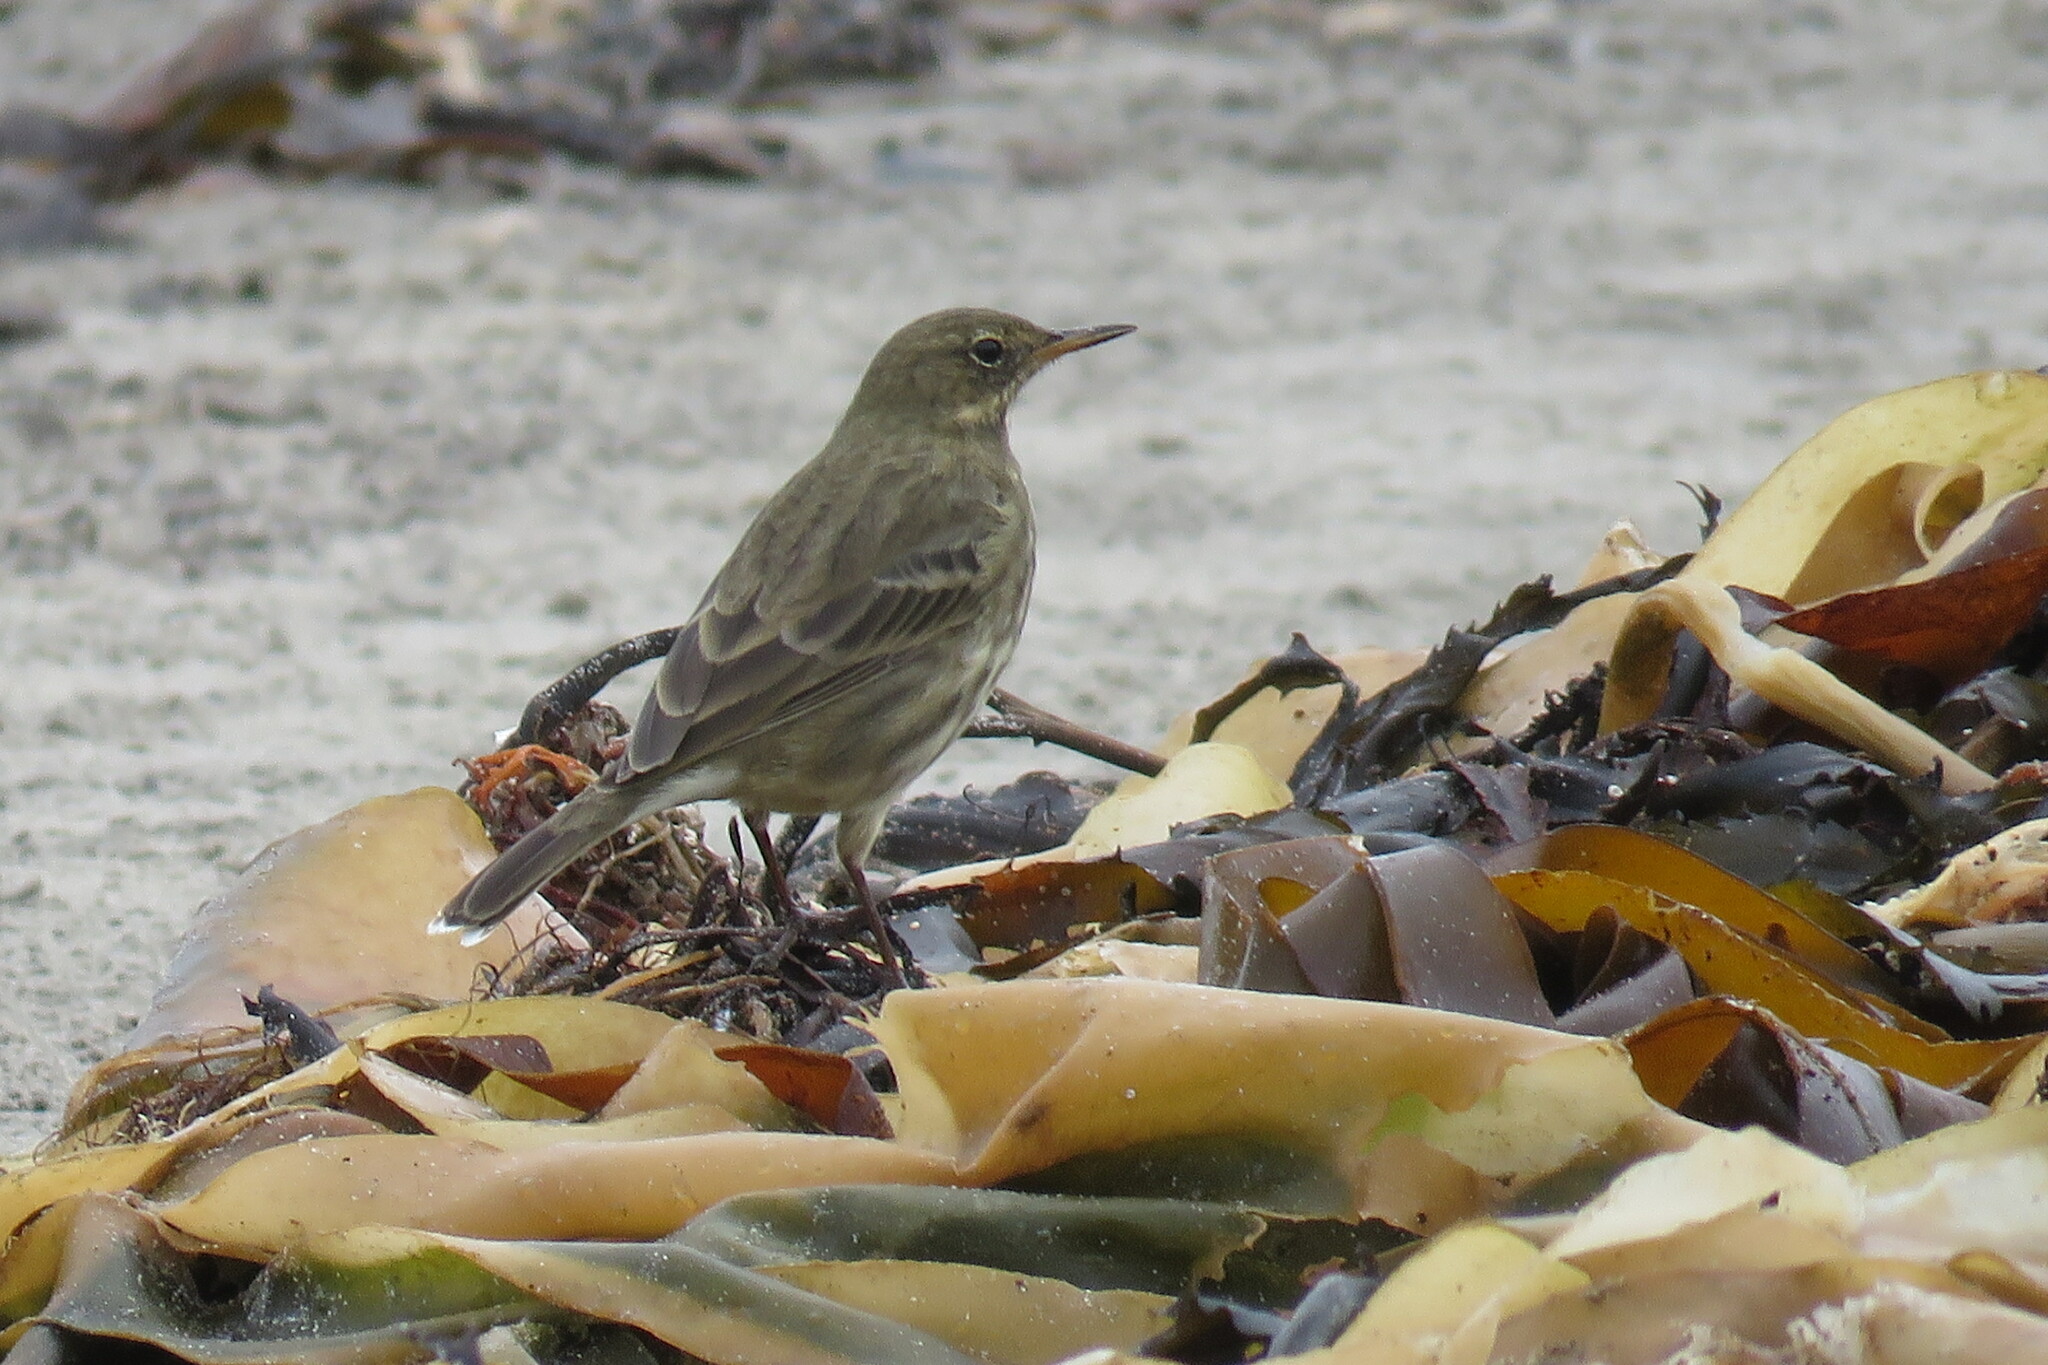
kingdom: Animalia
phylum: Chordata
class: Aves
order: Passeriformes
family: Motacillidae
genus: Anthus
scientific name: Anthus petrosus
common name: Eurasian rock pipit
